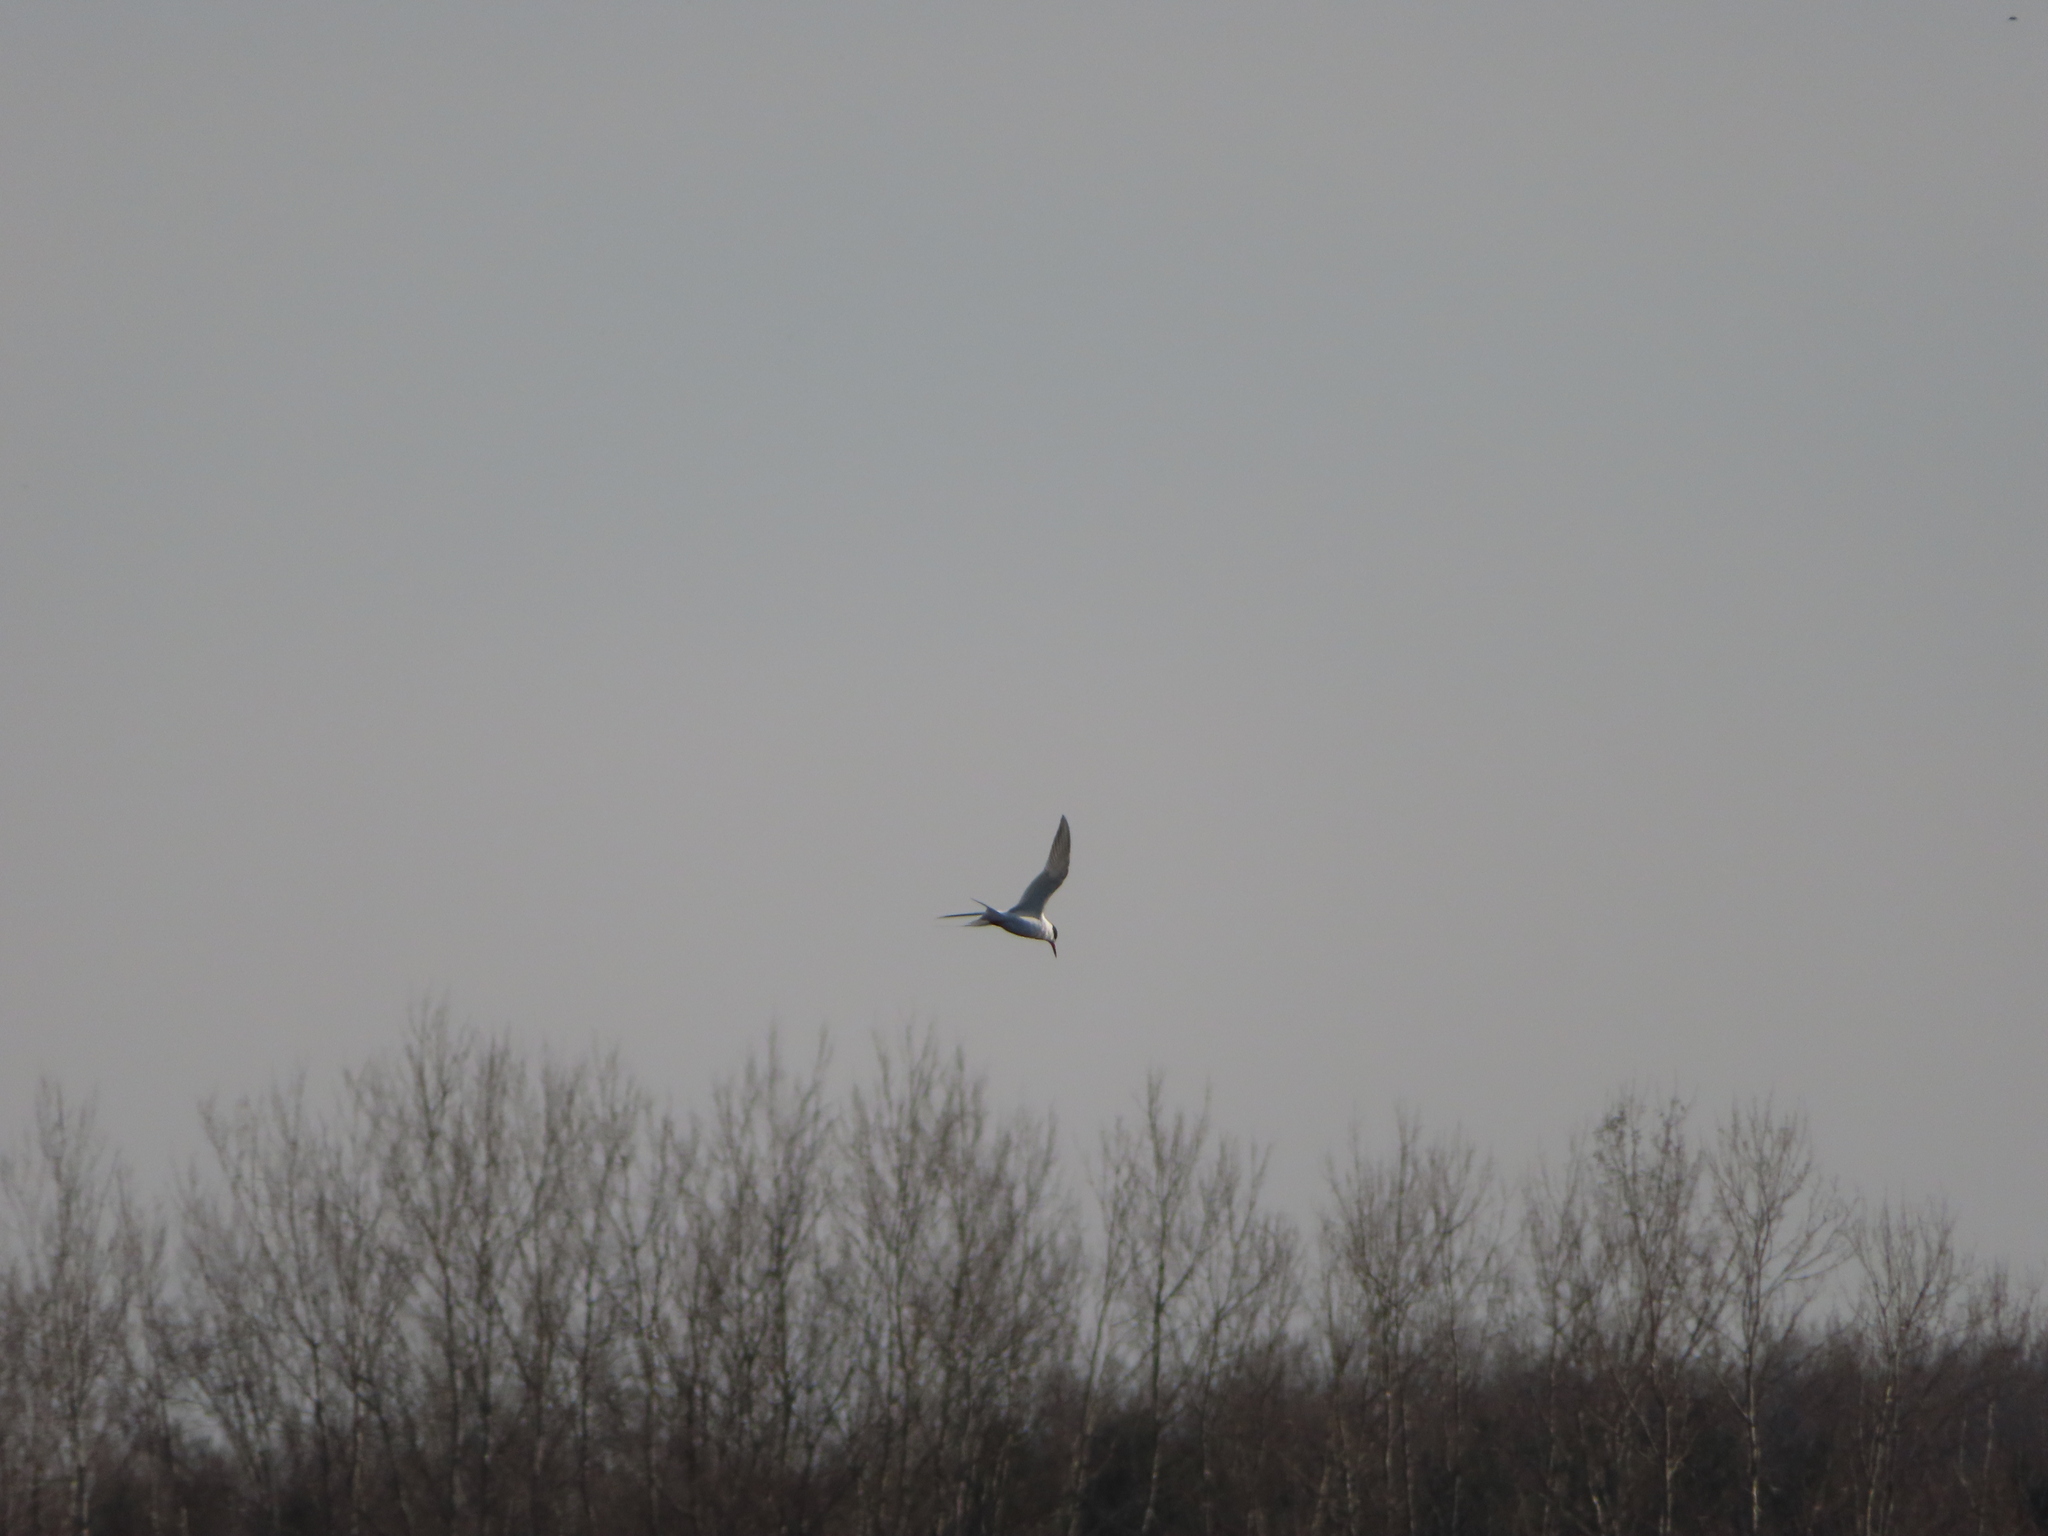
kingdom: Animalia
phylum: Chordata
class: Aves
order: Charadriiformes
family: Laridae
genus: Sterna
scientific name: Sterna forsteri
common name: Forster's tern
